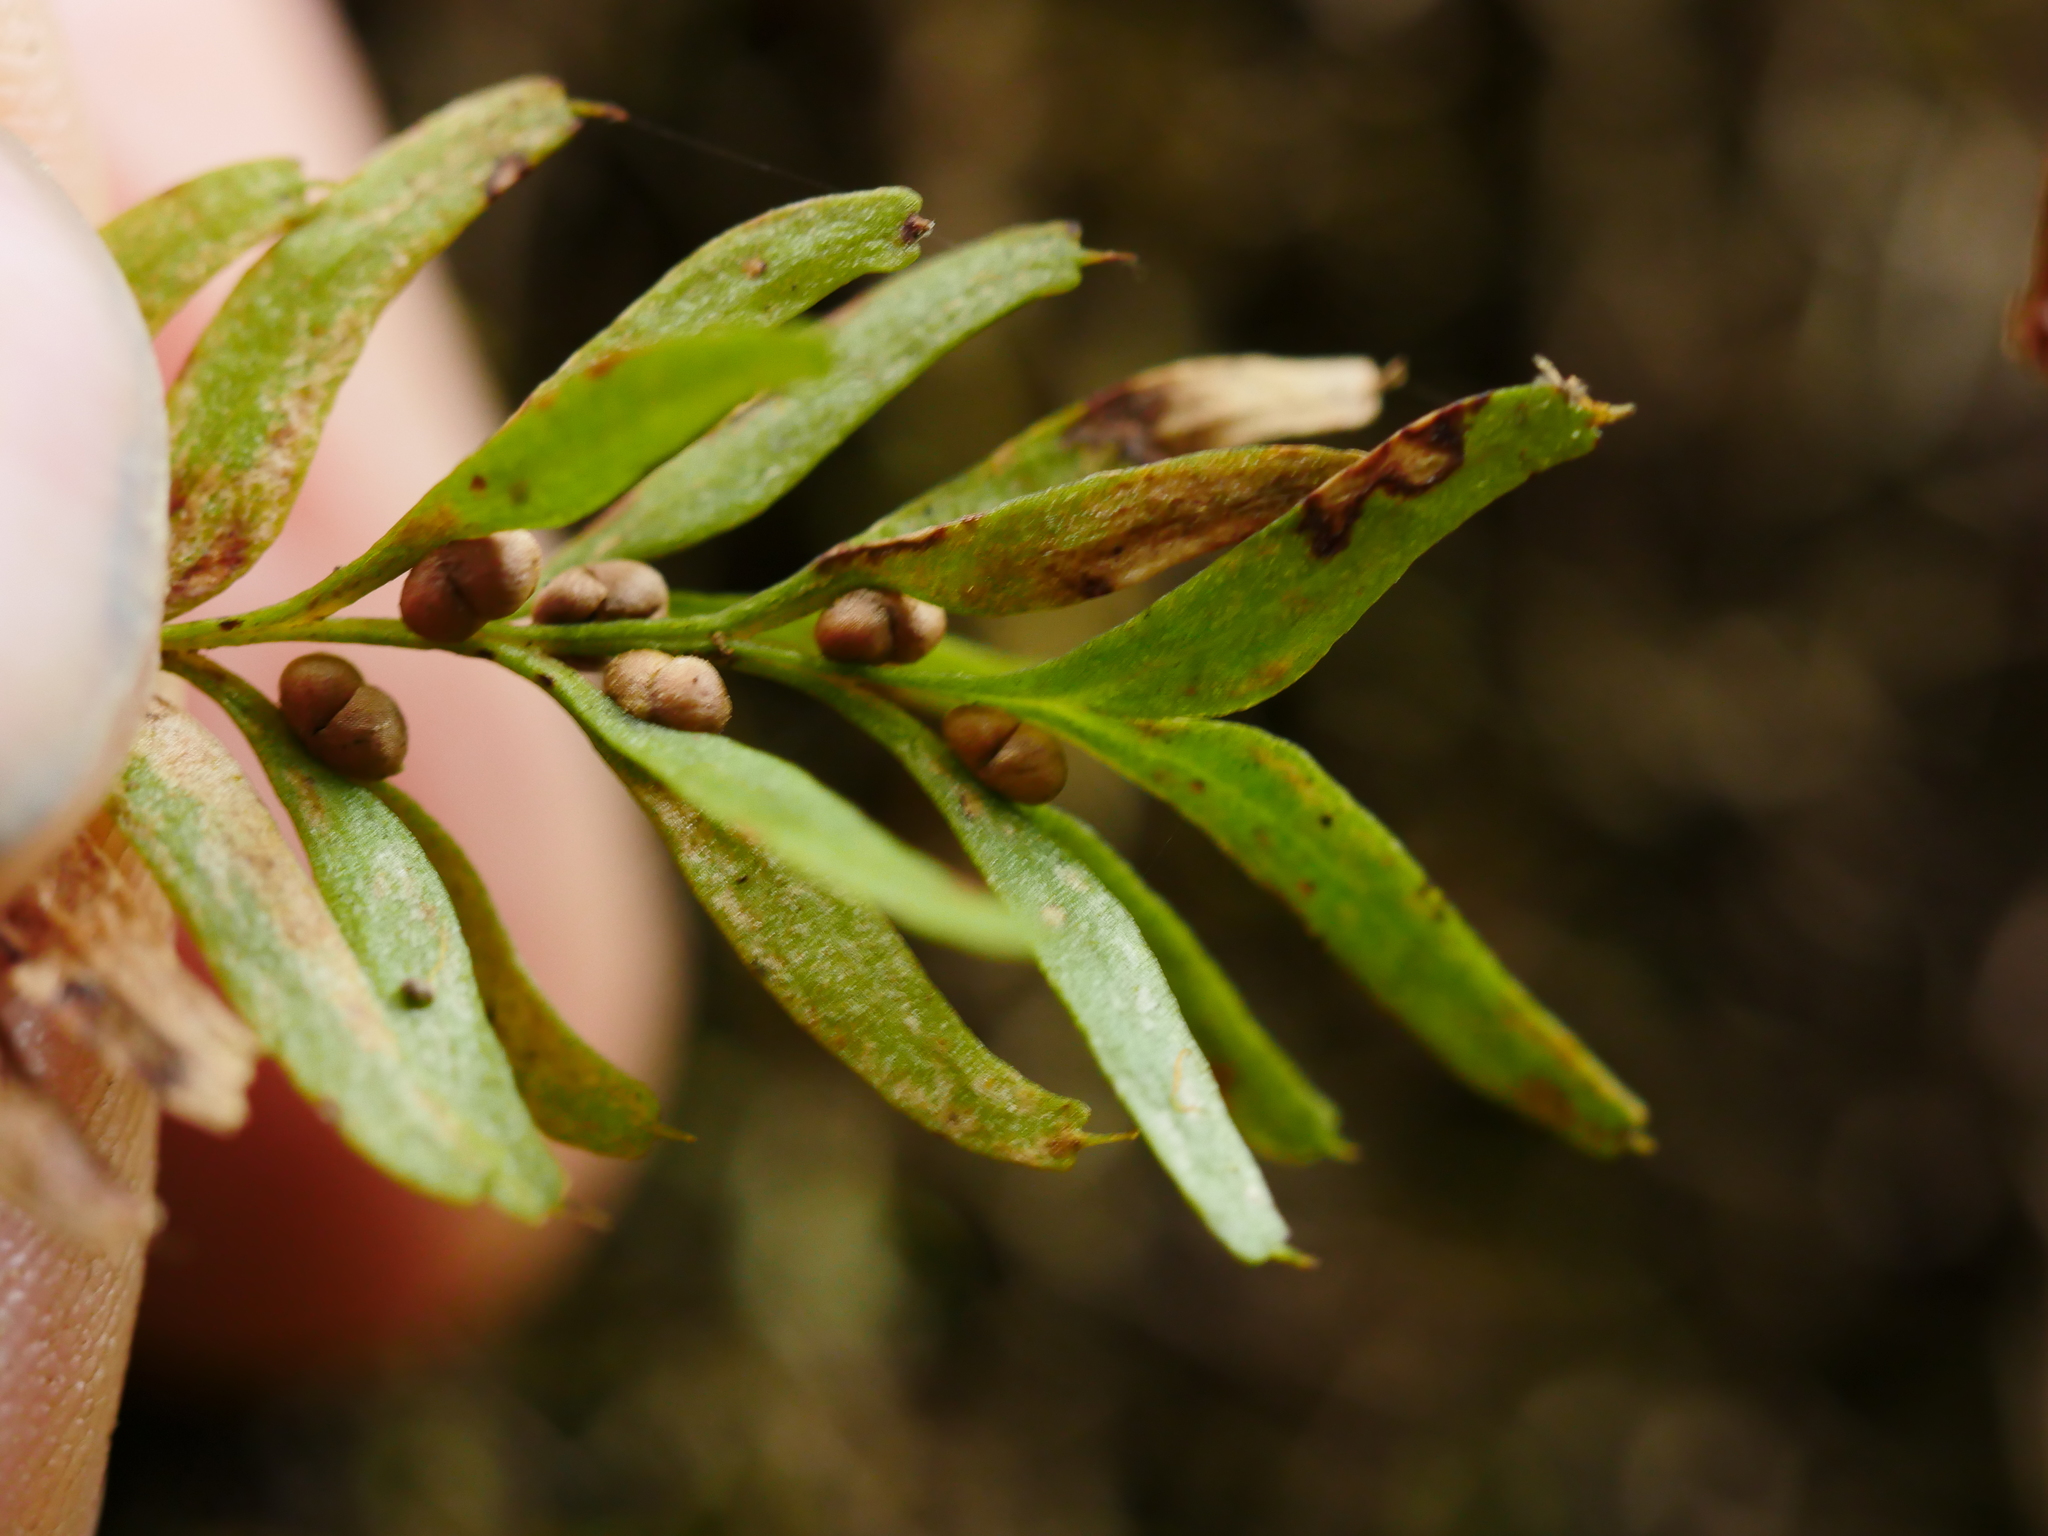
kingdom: Plantae
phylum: Tracheophyta
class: Polypodiopsida
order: Psilotales
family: Psilotaceae
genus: Tmesipteris
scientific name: Tmesipteris sigmatifolia
